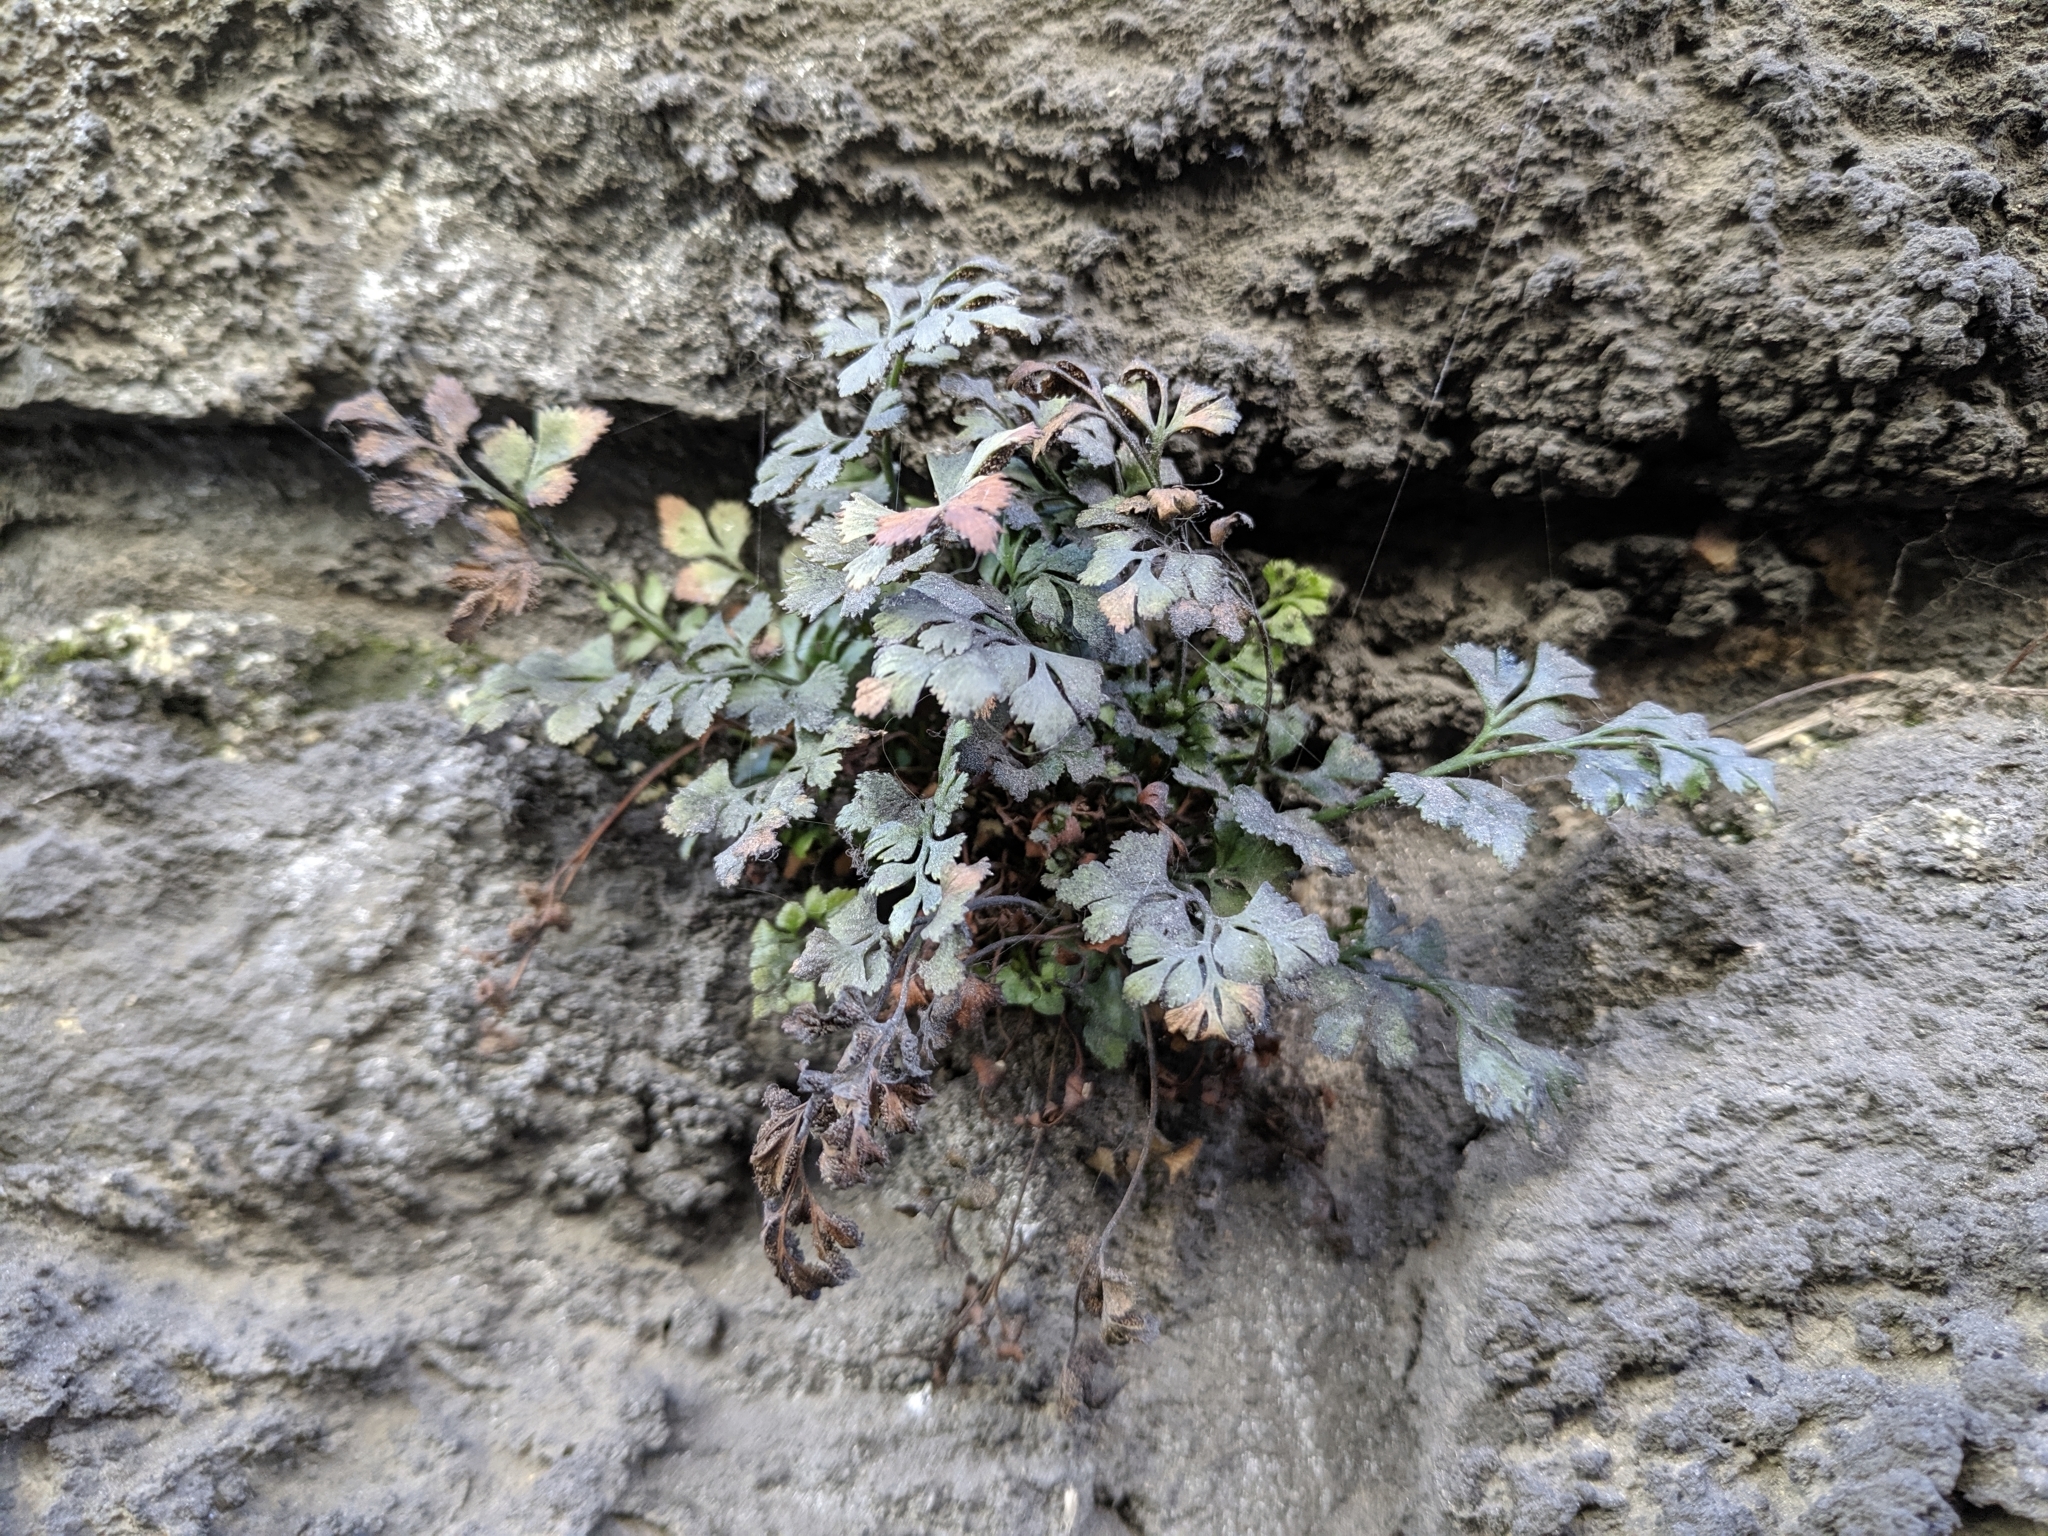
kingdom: Plantae
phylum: Tracheophyta
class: Polypodiopsida
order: Polypodiales
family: Aspleniaceae
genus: Asplenium
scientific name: Asplenium ruta-muraria
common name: Wall-rue
